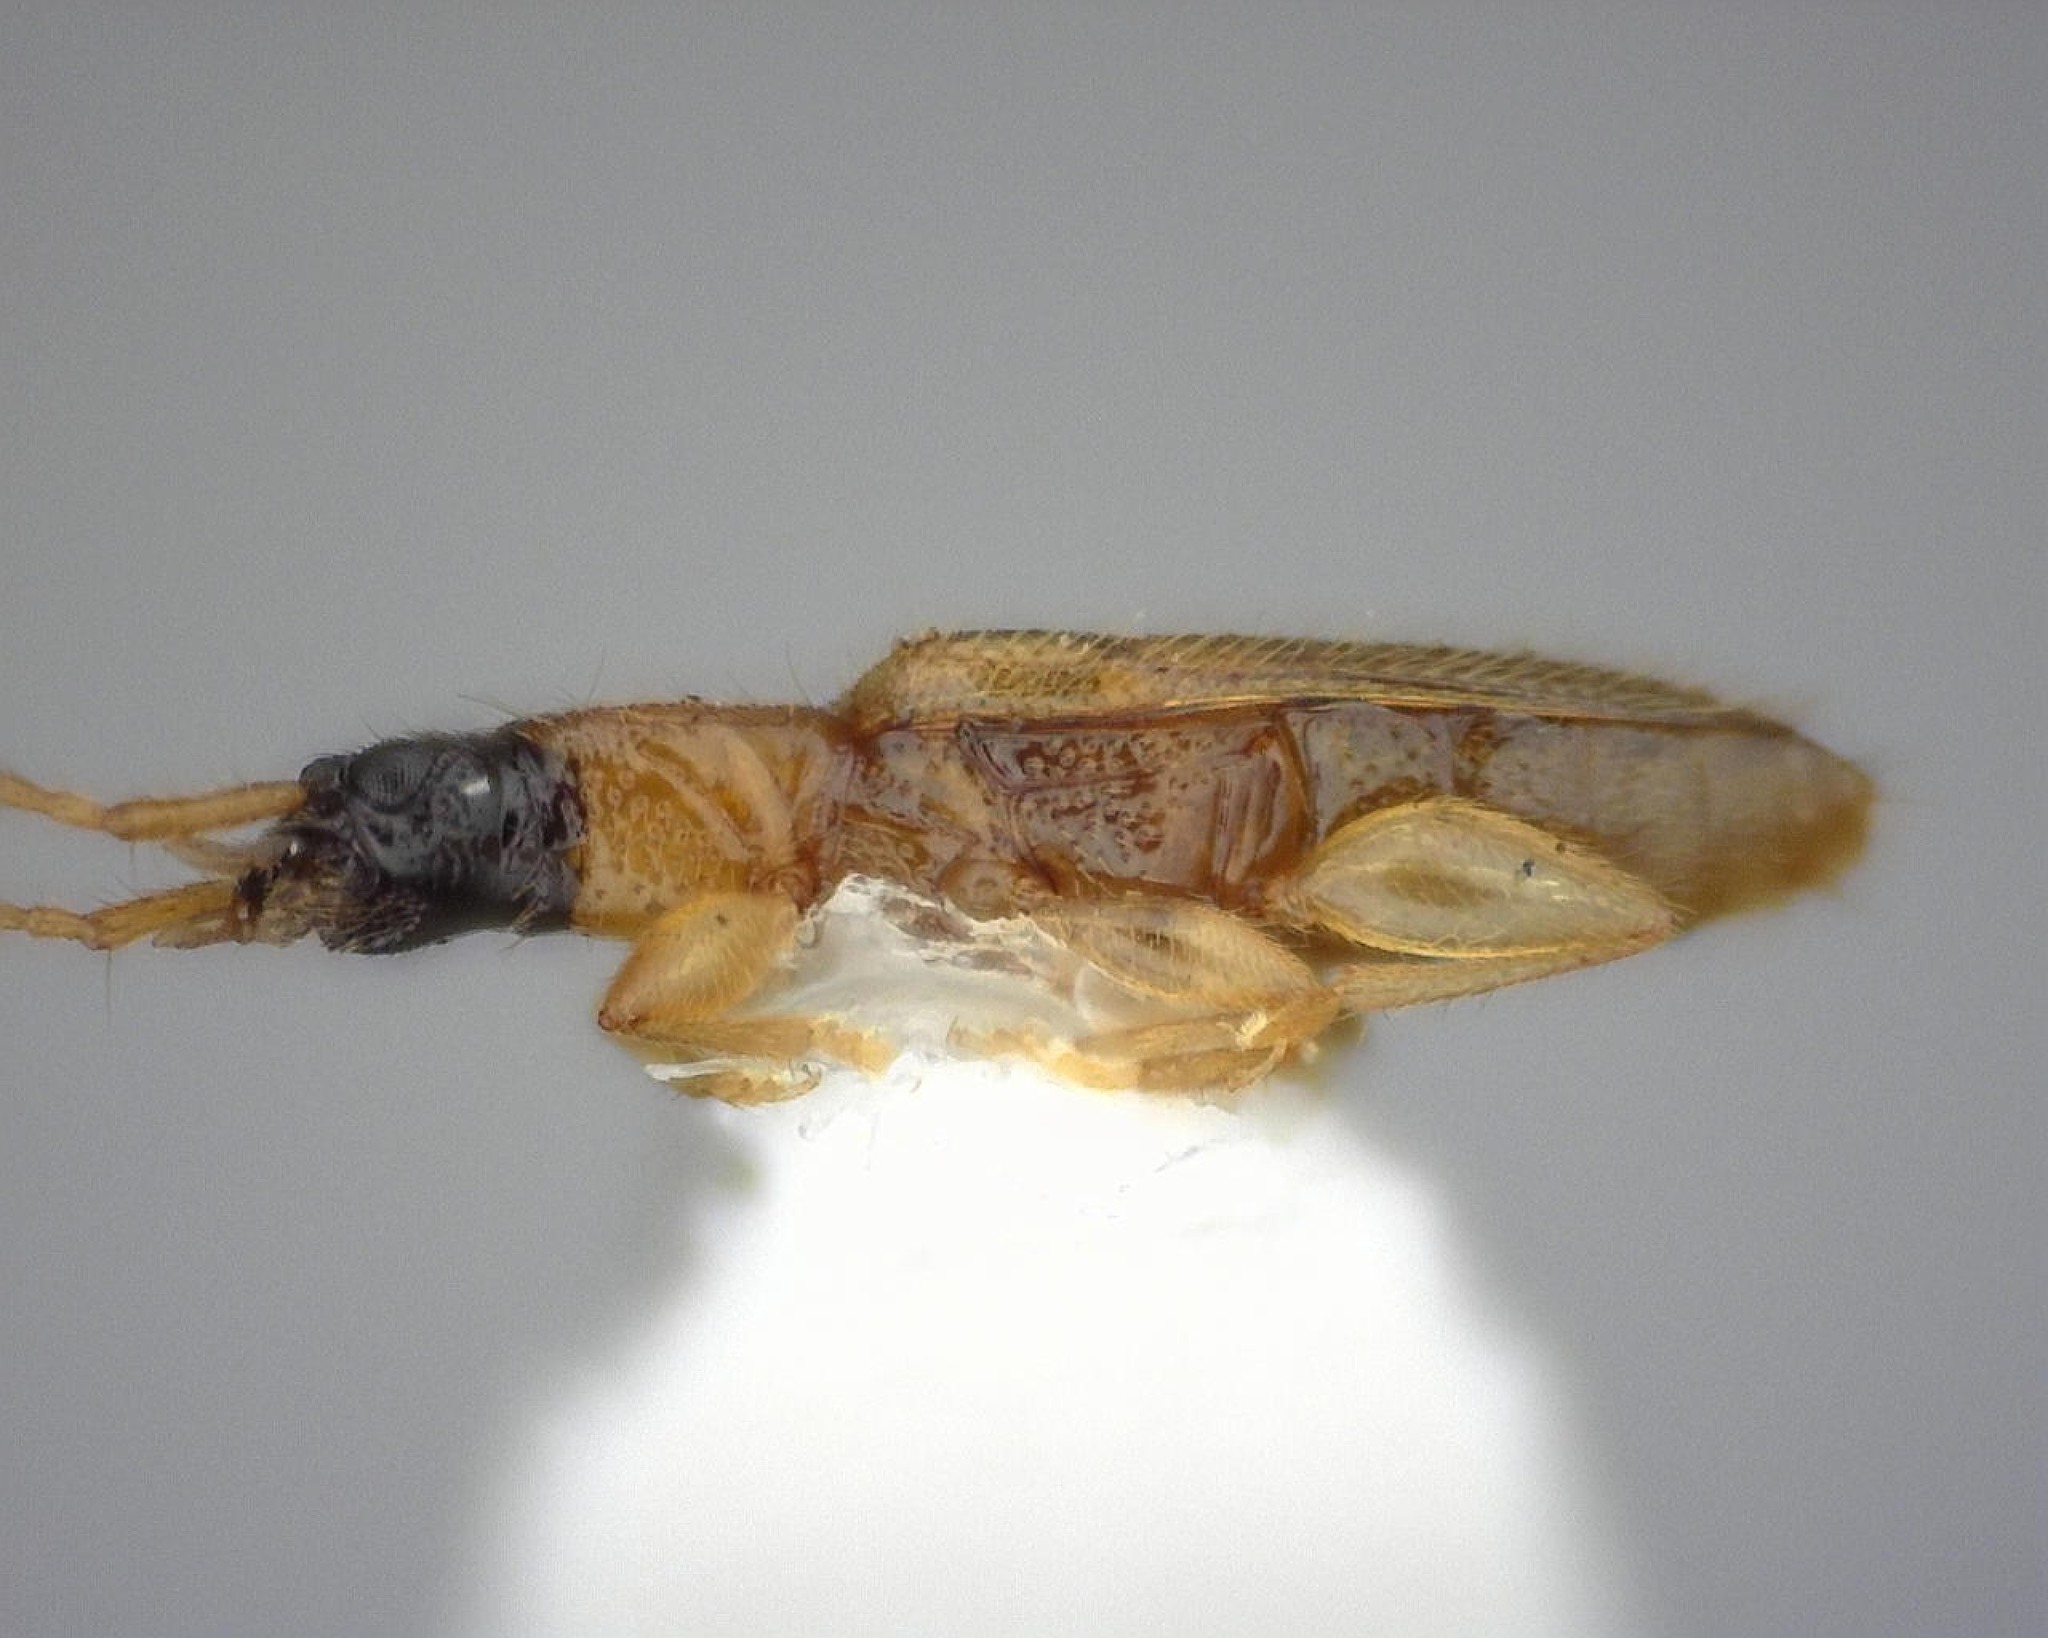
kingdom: Animalia
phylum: Arthropoda
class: Insecta
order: Coleoptera
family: Silvanidae
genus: Telephanus
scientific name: Telephanus velox
